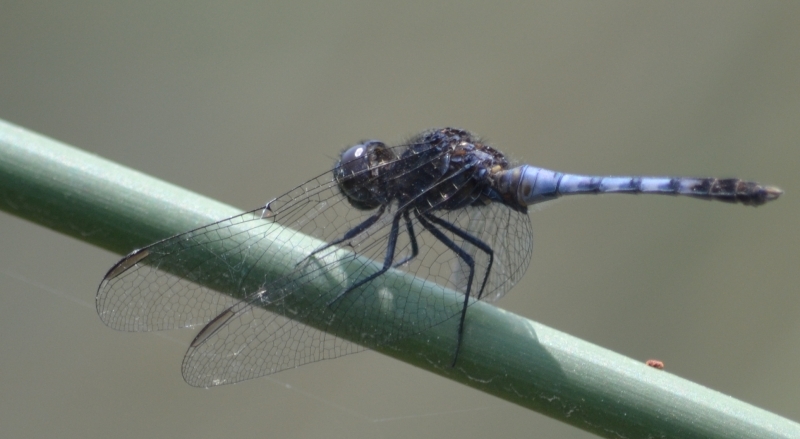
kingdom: Animalia
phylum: Arthropoda
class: Insecta
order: Odonata
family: Libellulidae
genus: Erythrodiplax
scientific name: Erythrodiplax cleopatra
